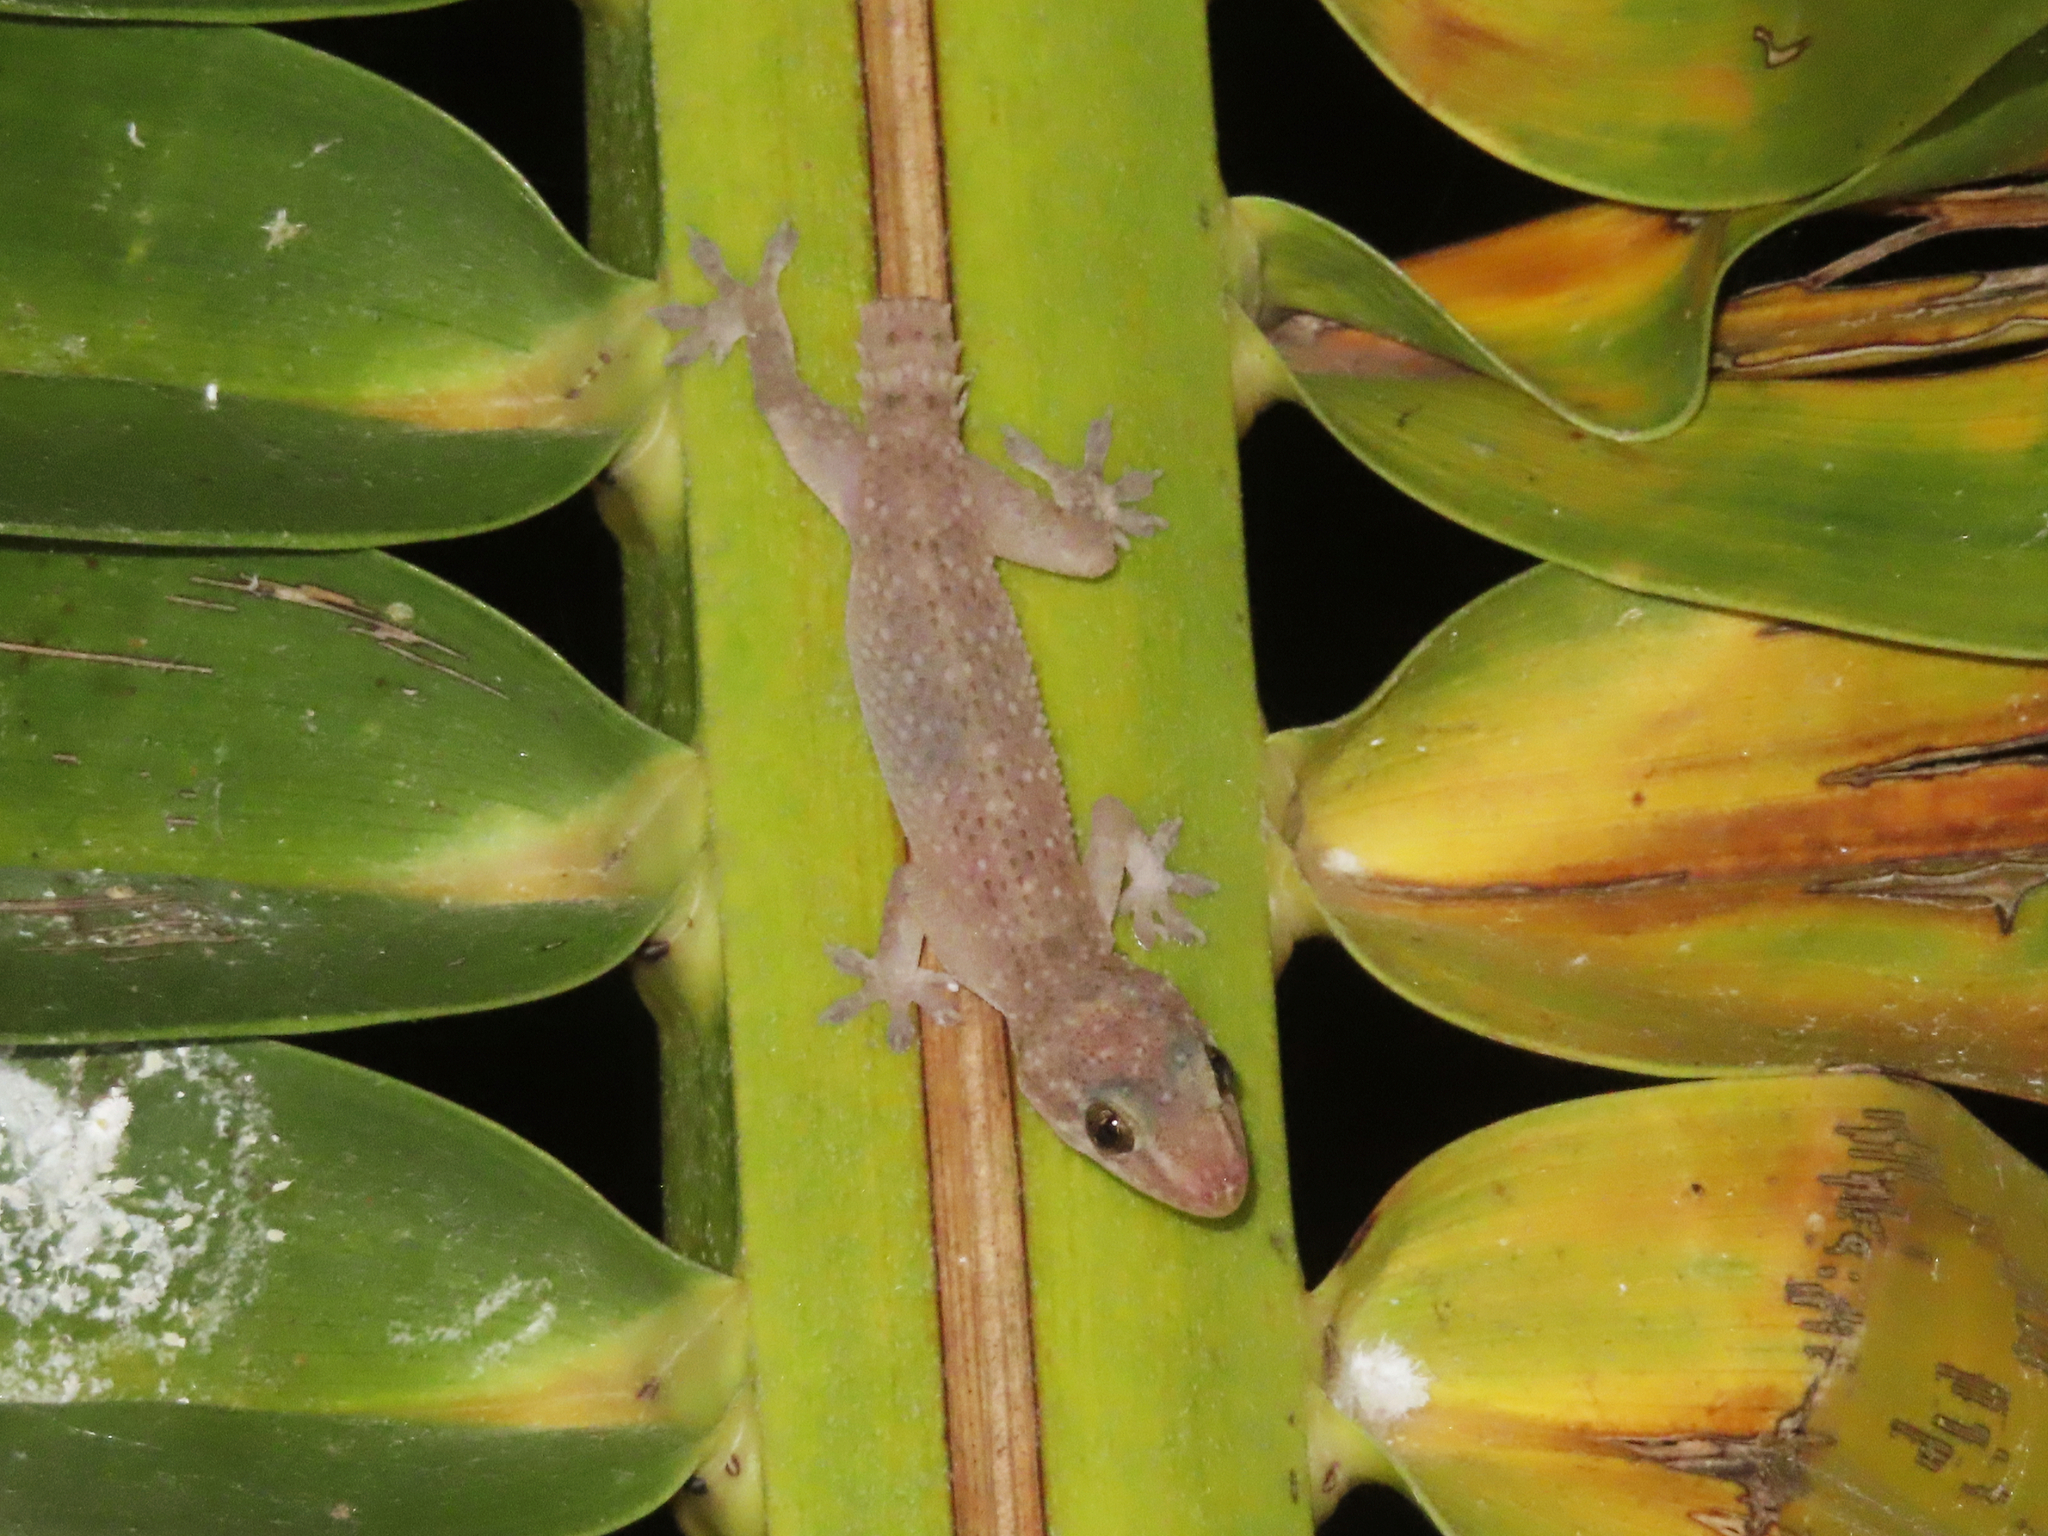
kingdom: Animalia
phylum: Chordata
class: Squamata
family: Gekkonidae
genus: Hemidactylus
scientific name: Hemidactylus parvimaculatus
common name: Spotted house gecko
